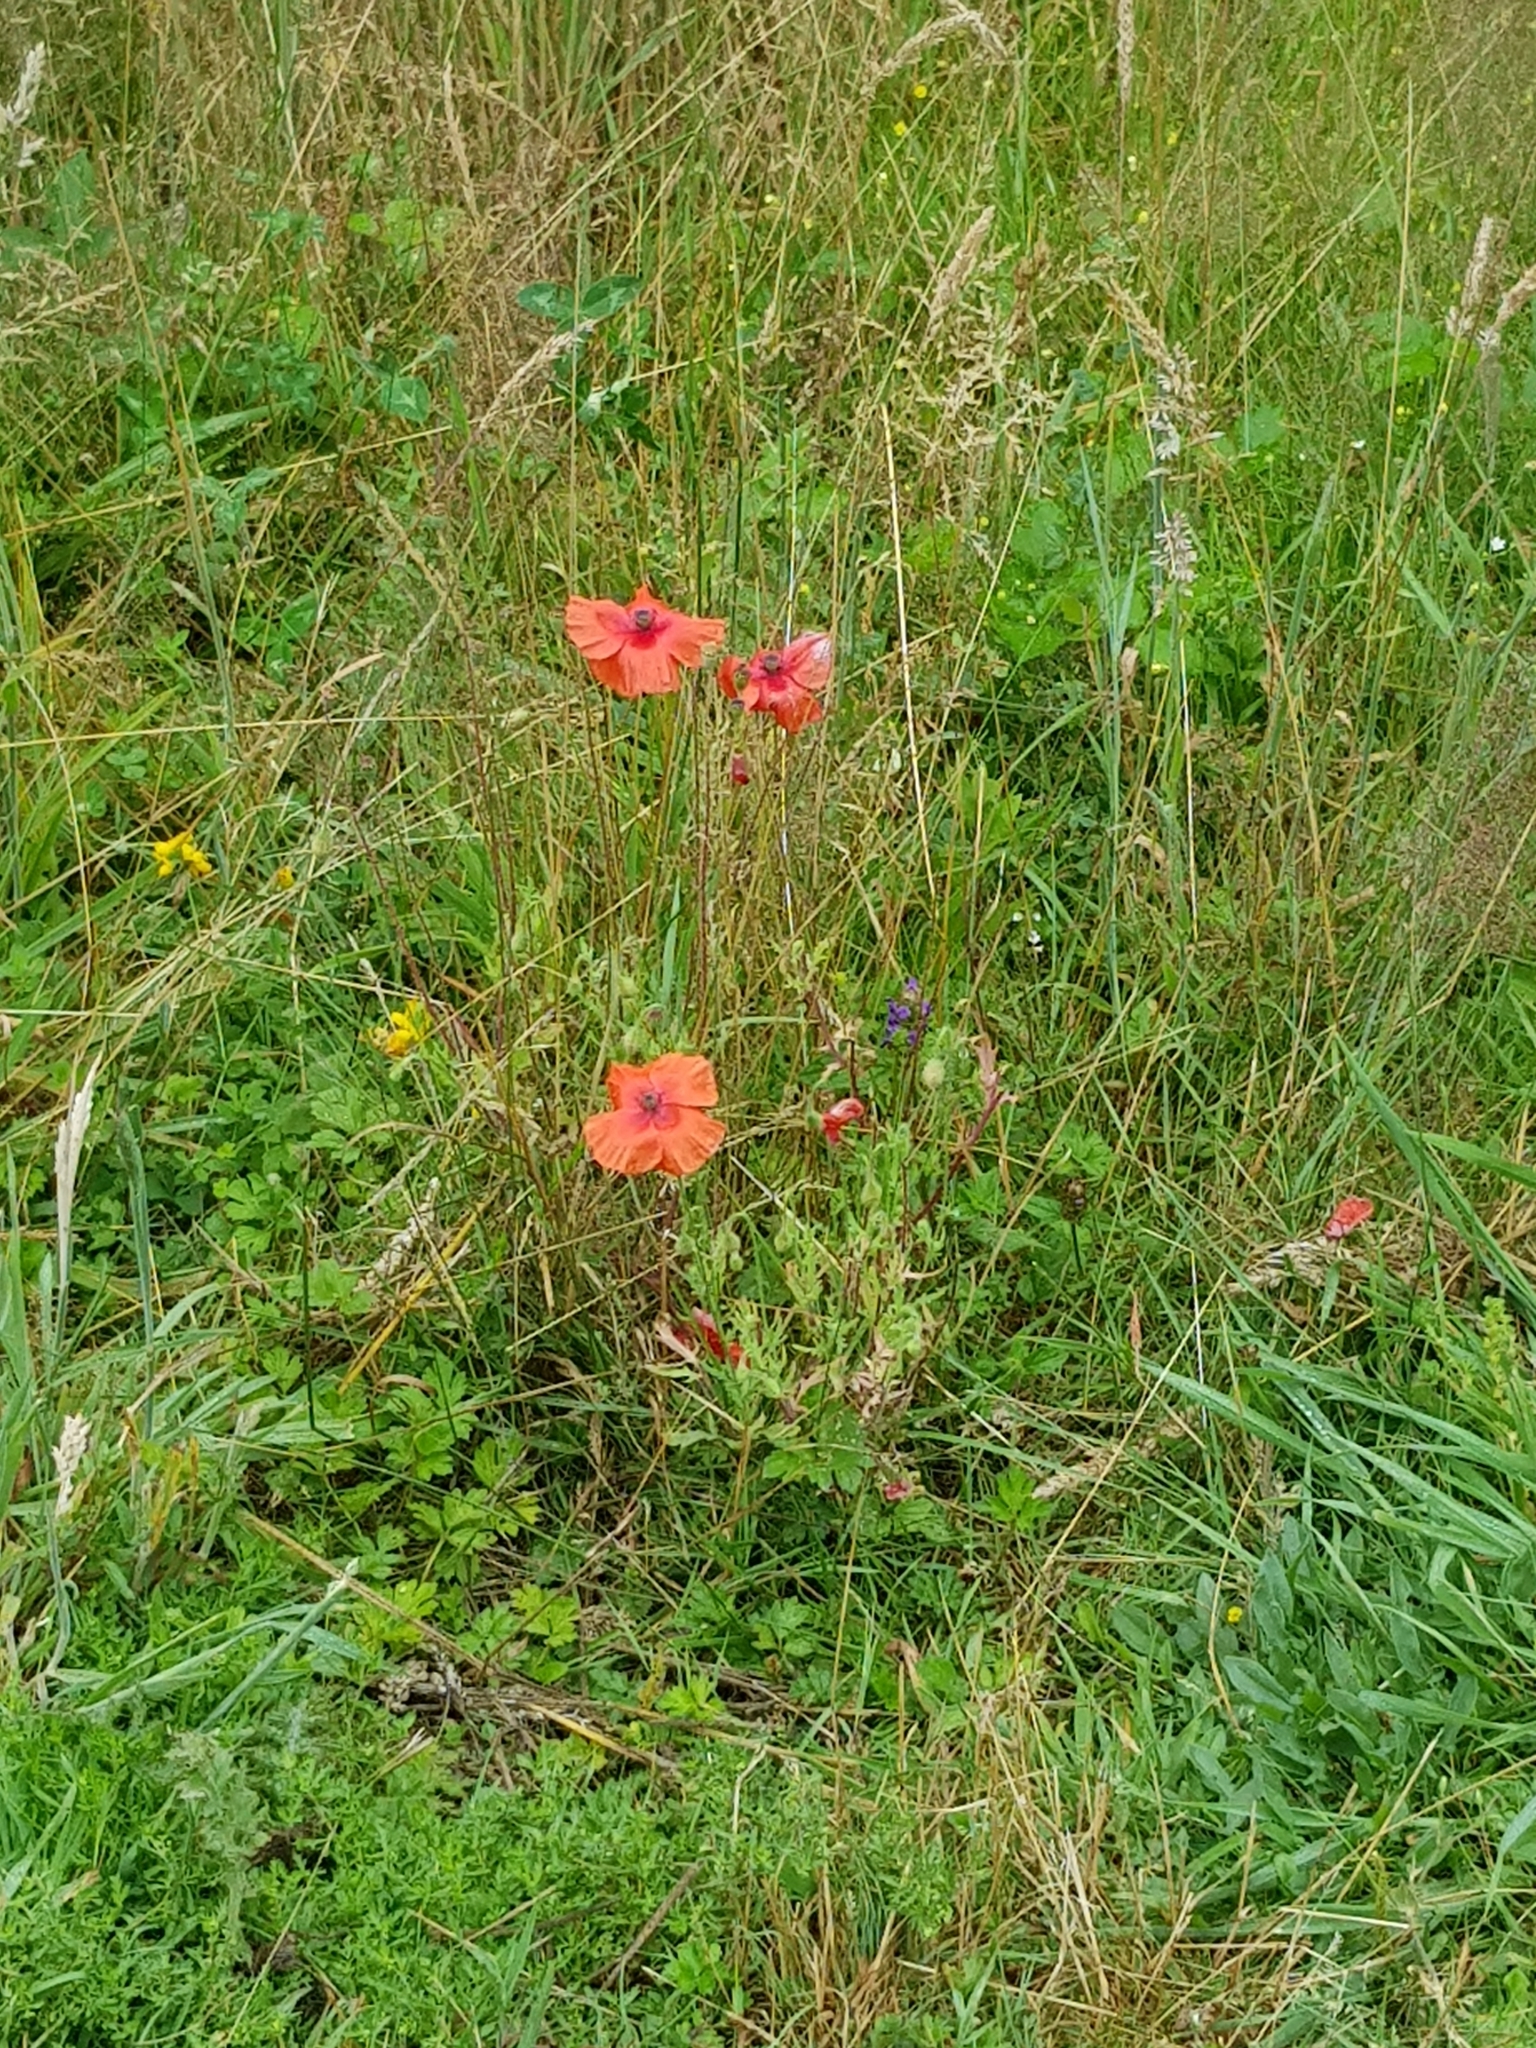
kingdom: Plantae
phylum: Tracheophyta
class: Magnoliopsida
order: Ranunculales
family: Papaveraceae
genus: Papaver
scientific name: Papaver rhoeas
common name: Corn poppy
